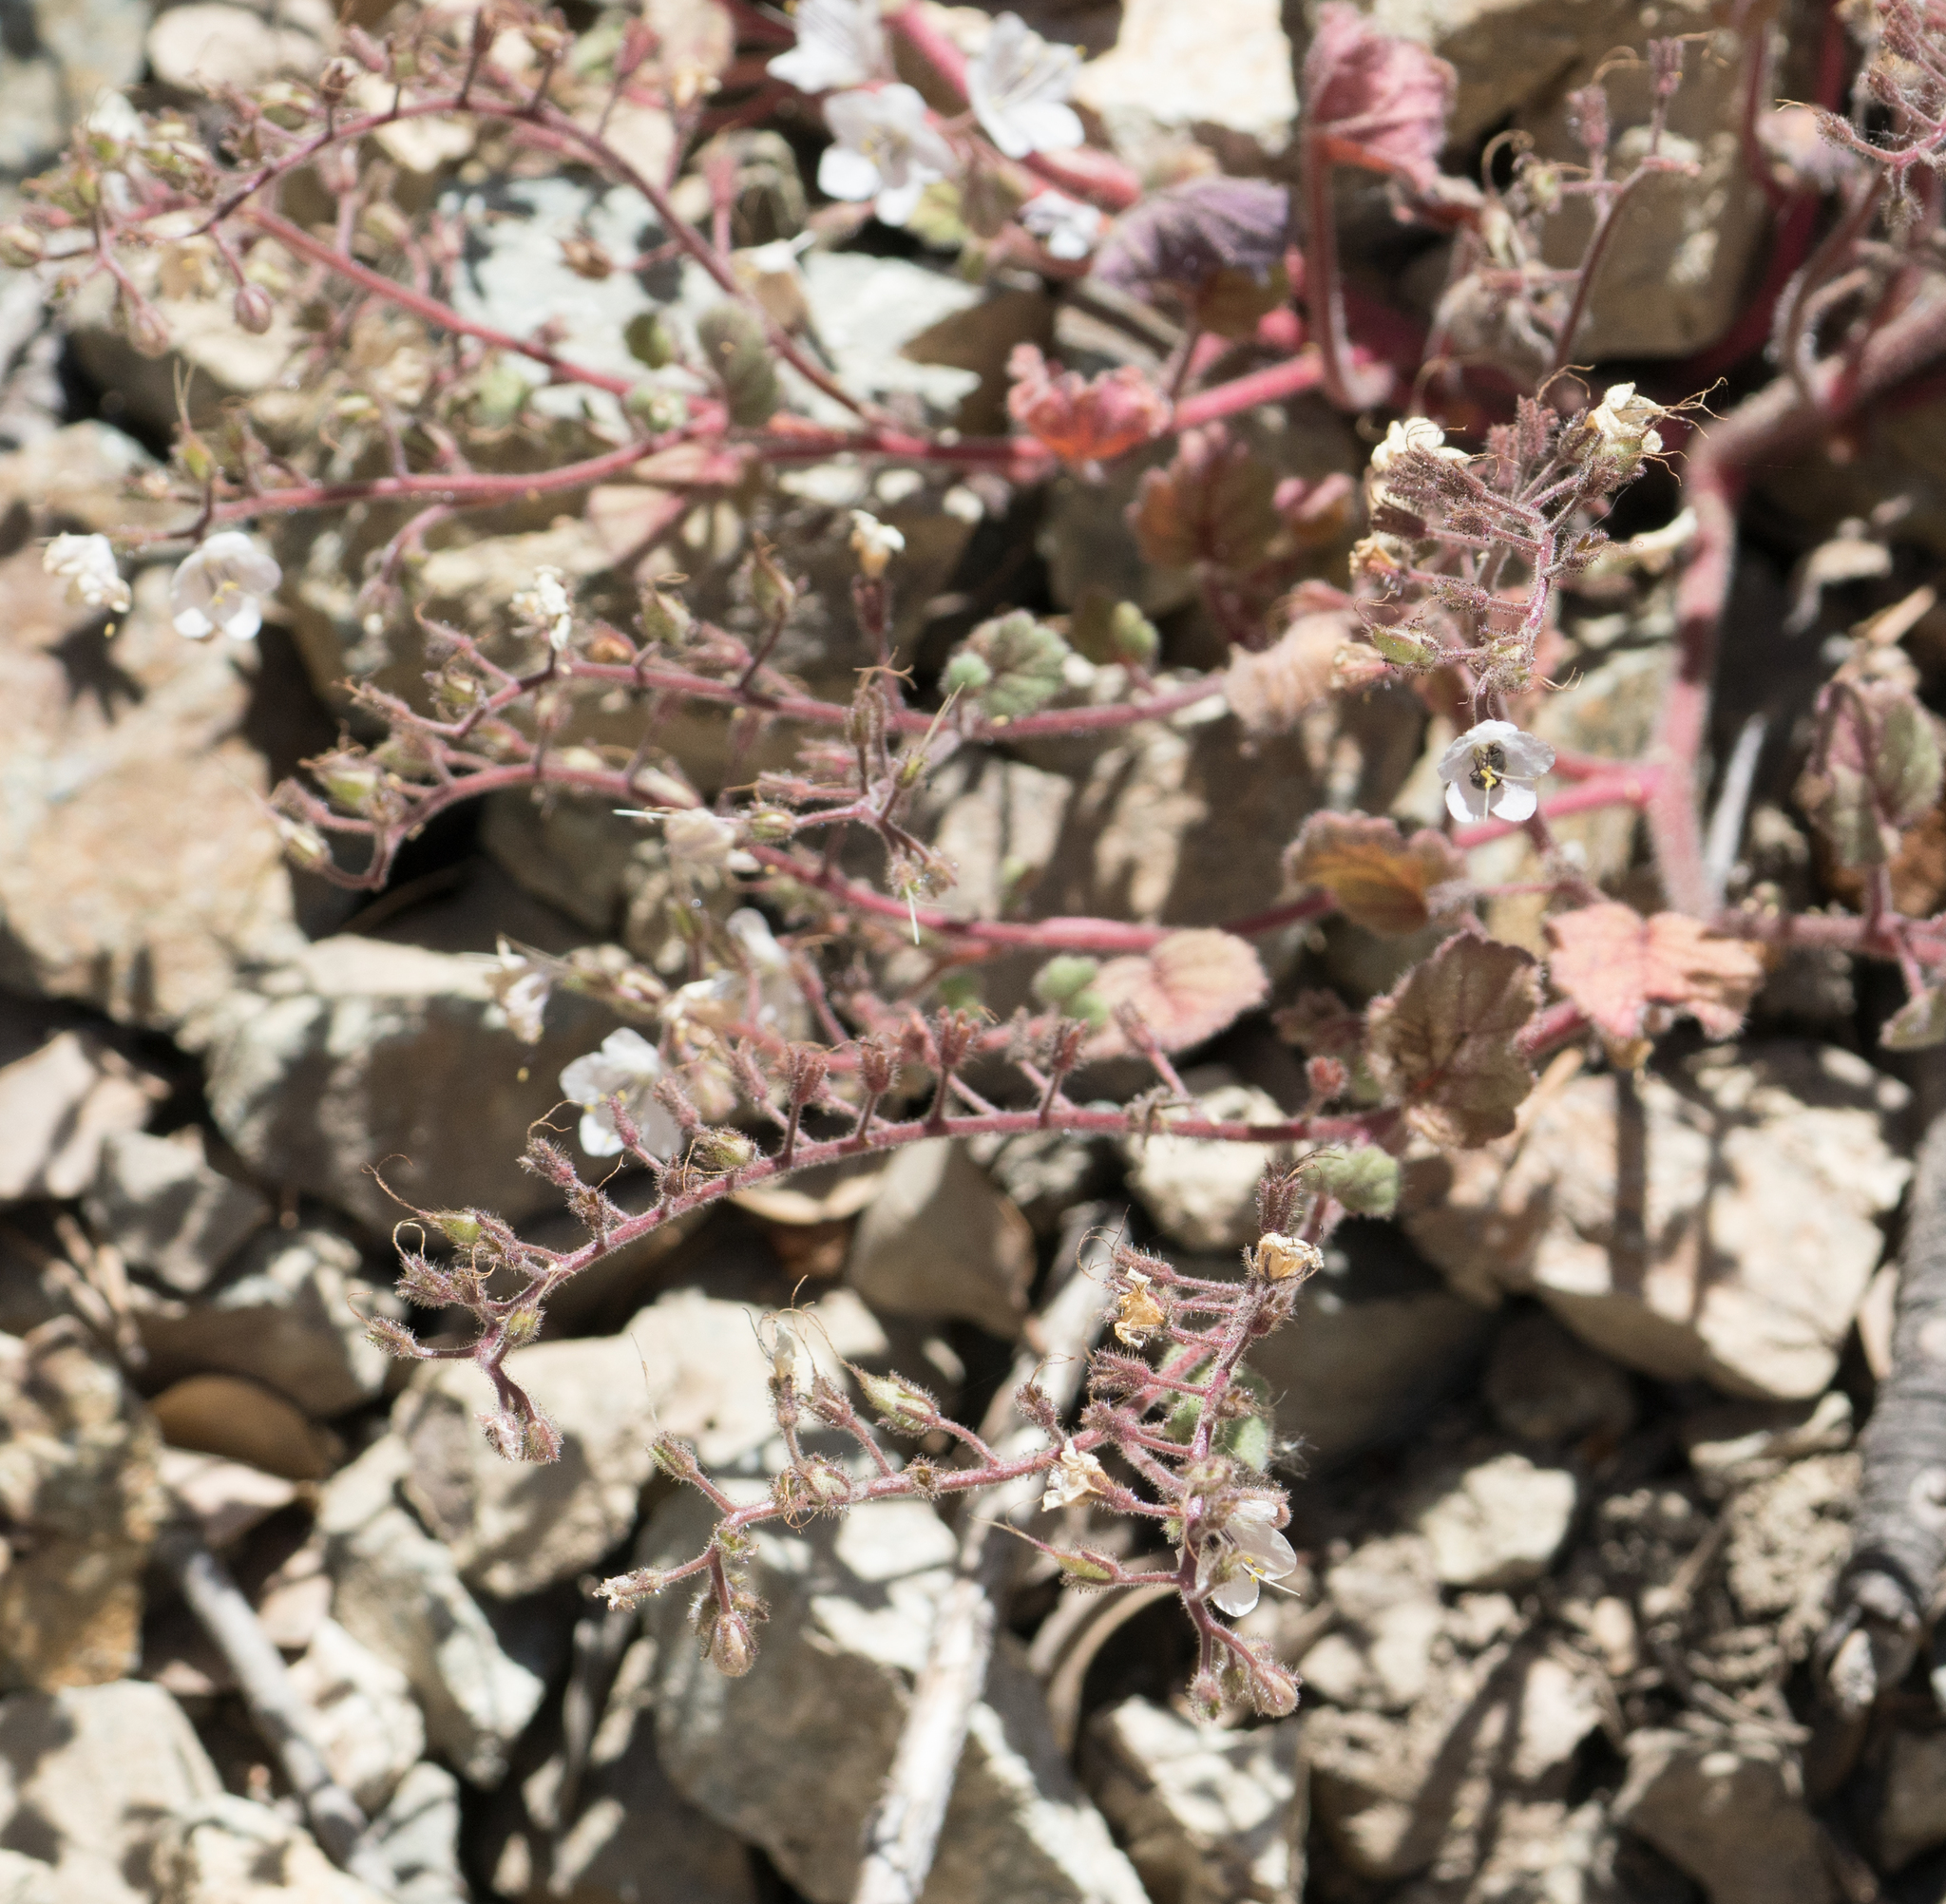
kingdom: Plantae
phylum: Tracheophyta
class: Magnoliopsida
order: Boraginales
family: Hydrophyllaceae
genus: Phacelia
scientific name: Phacelia longipes
